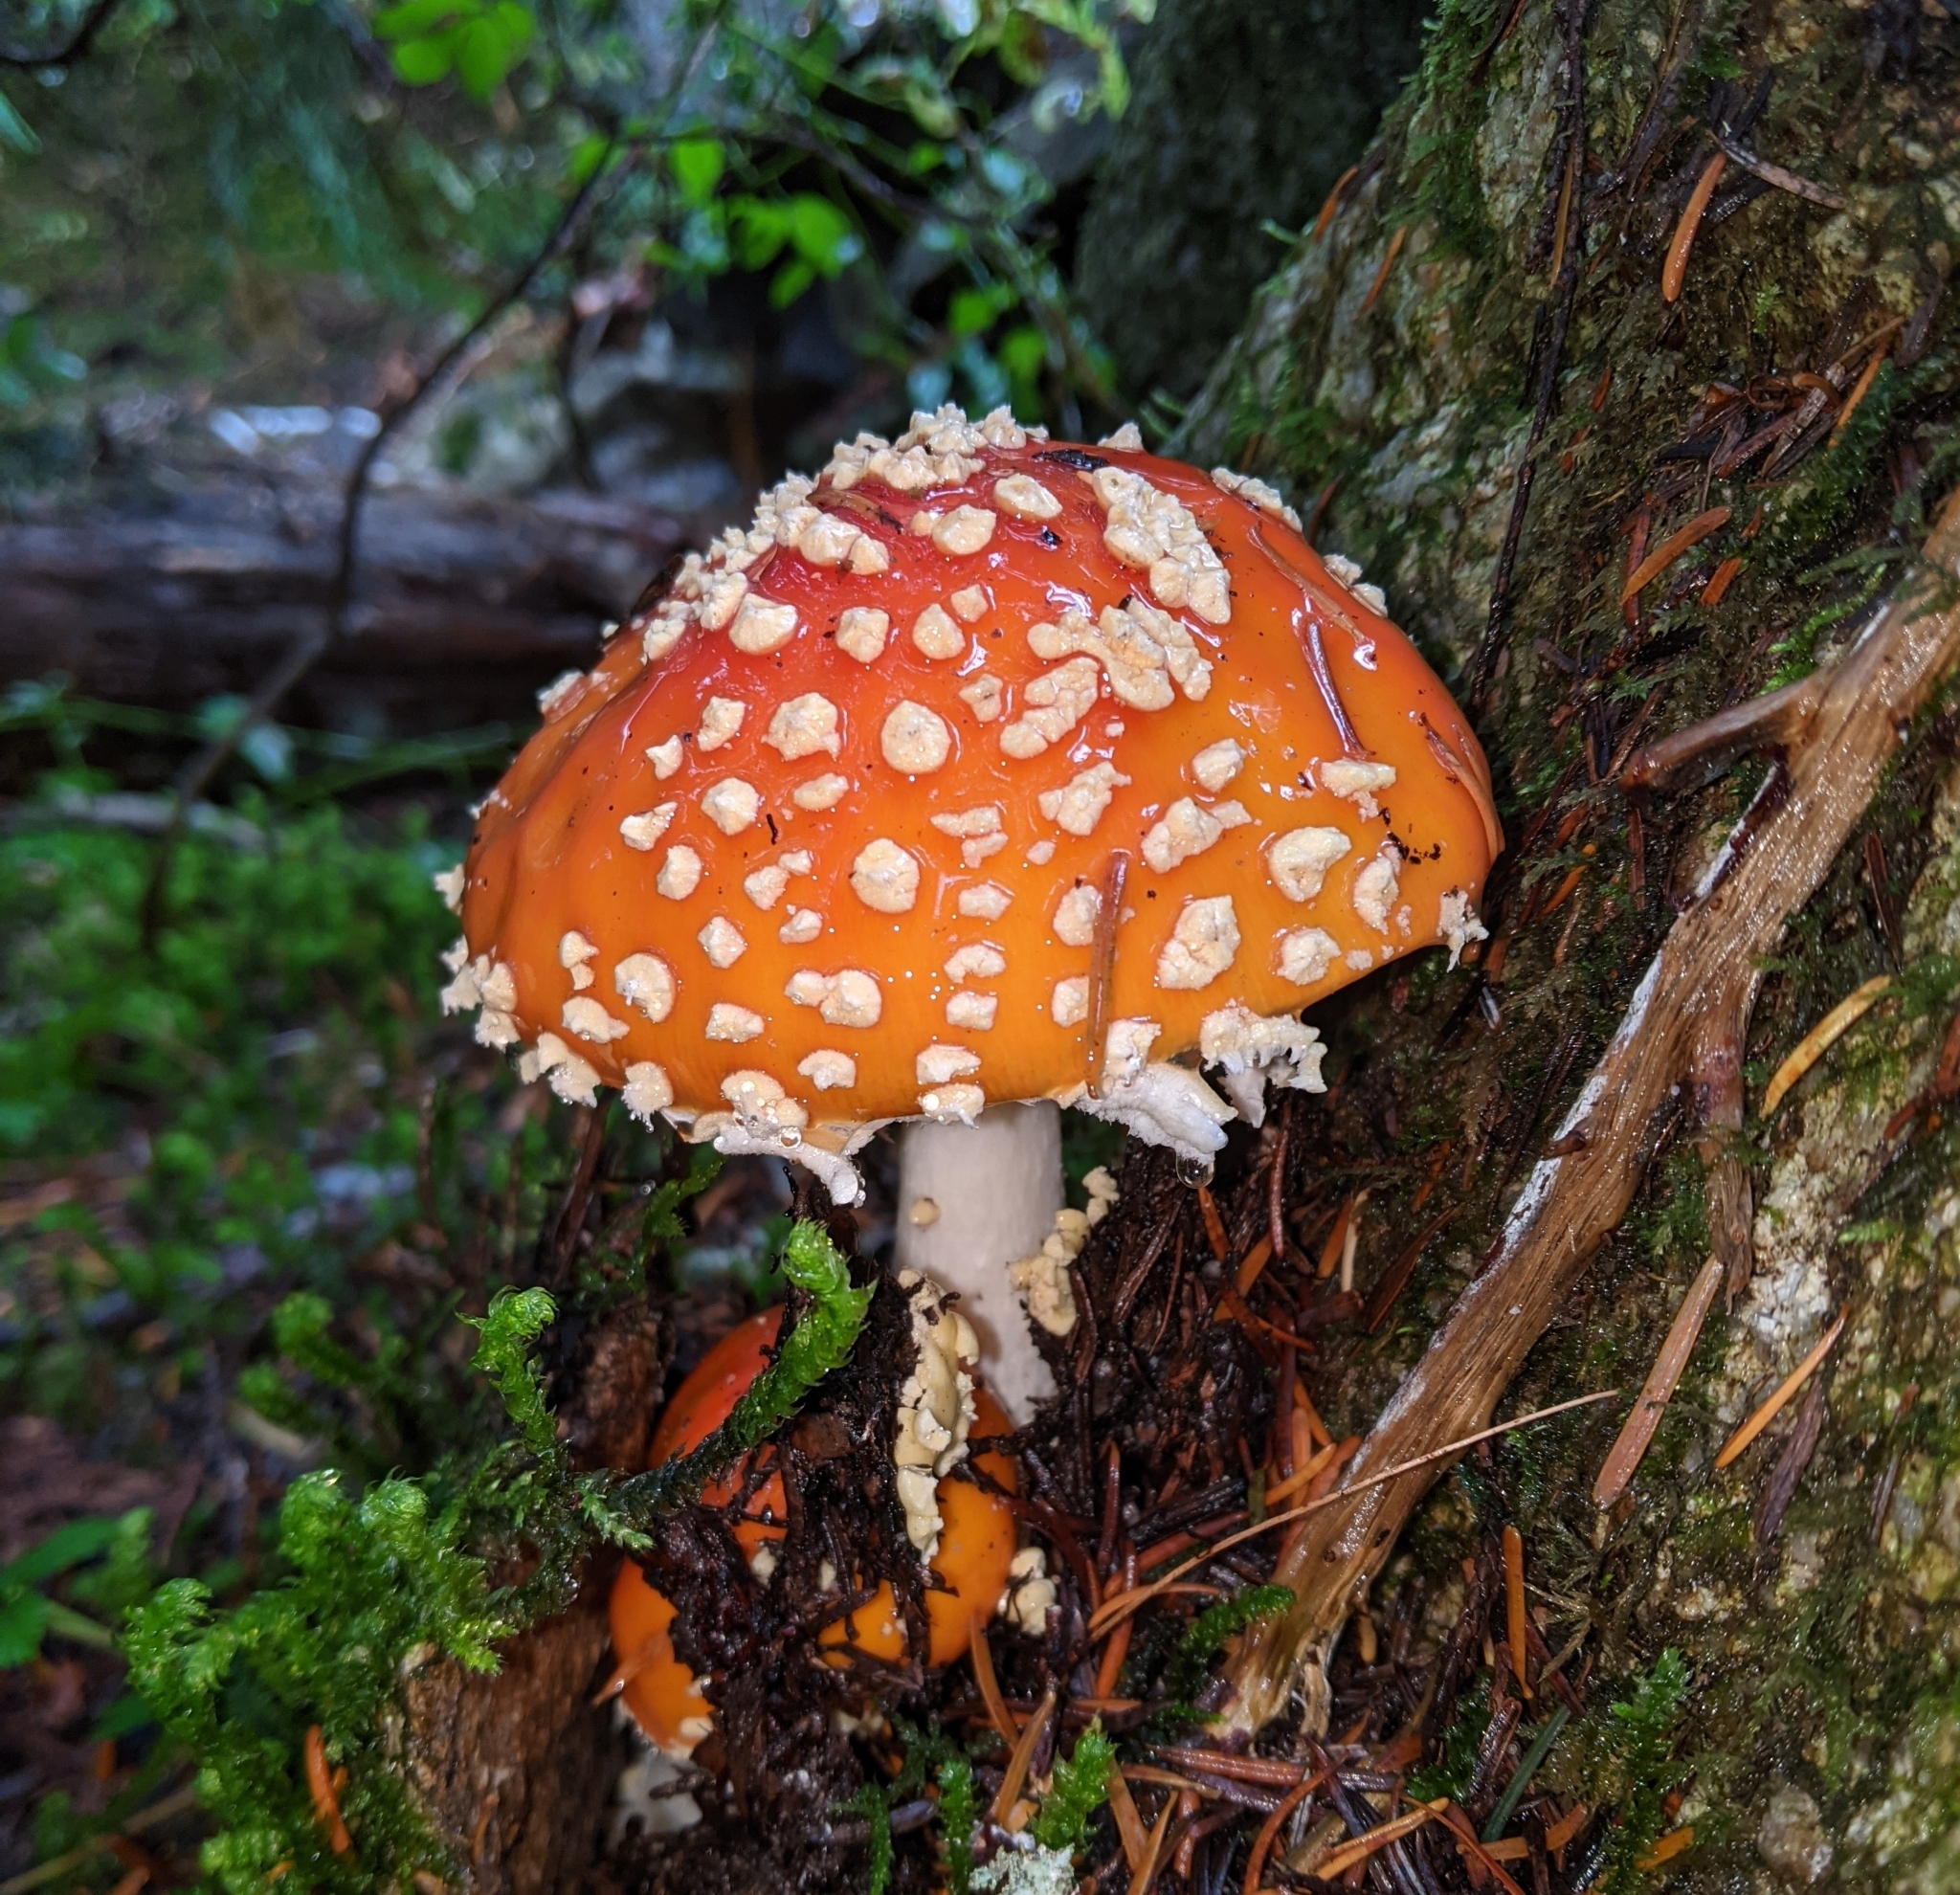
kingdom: Fungi
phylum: Basidiomycota
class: Agaricomycetes
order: Agaricales
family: Amanitaceae
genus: Amanita
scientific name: Amanita muscaria
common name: Fly agaric
